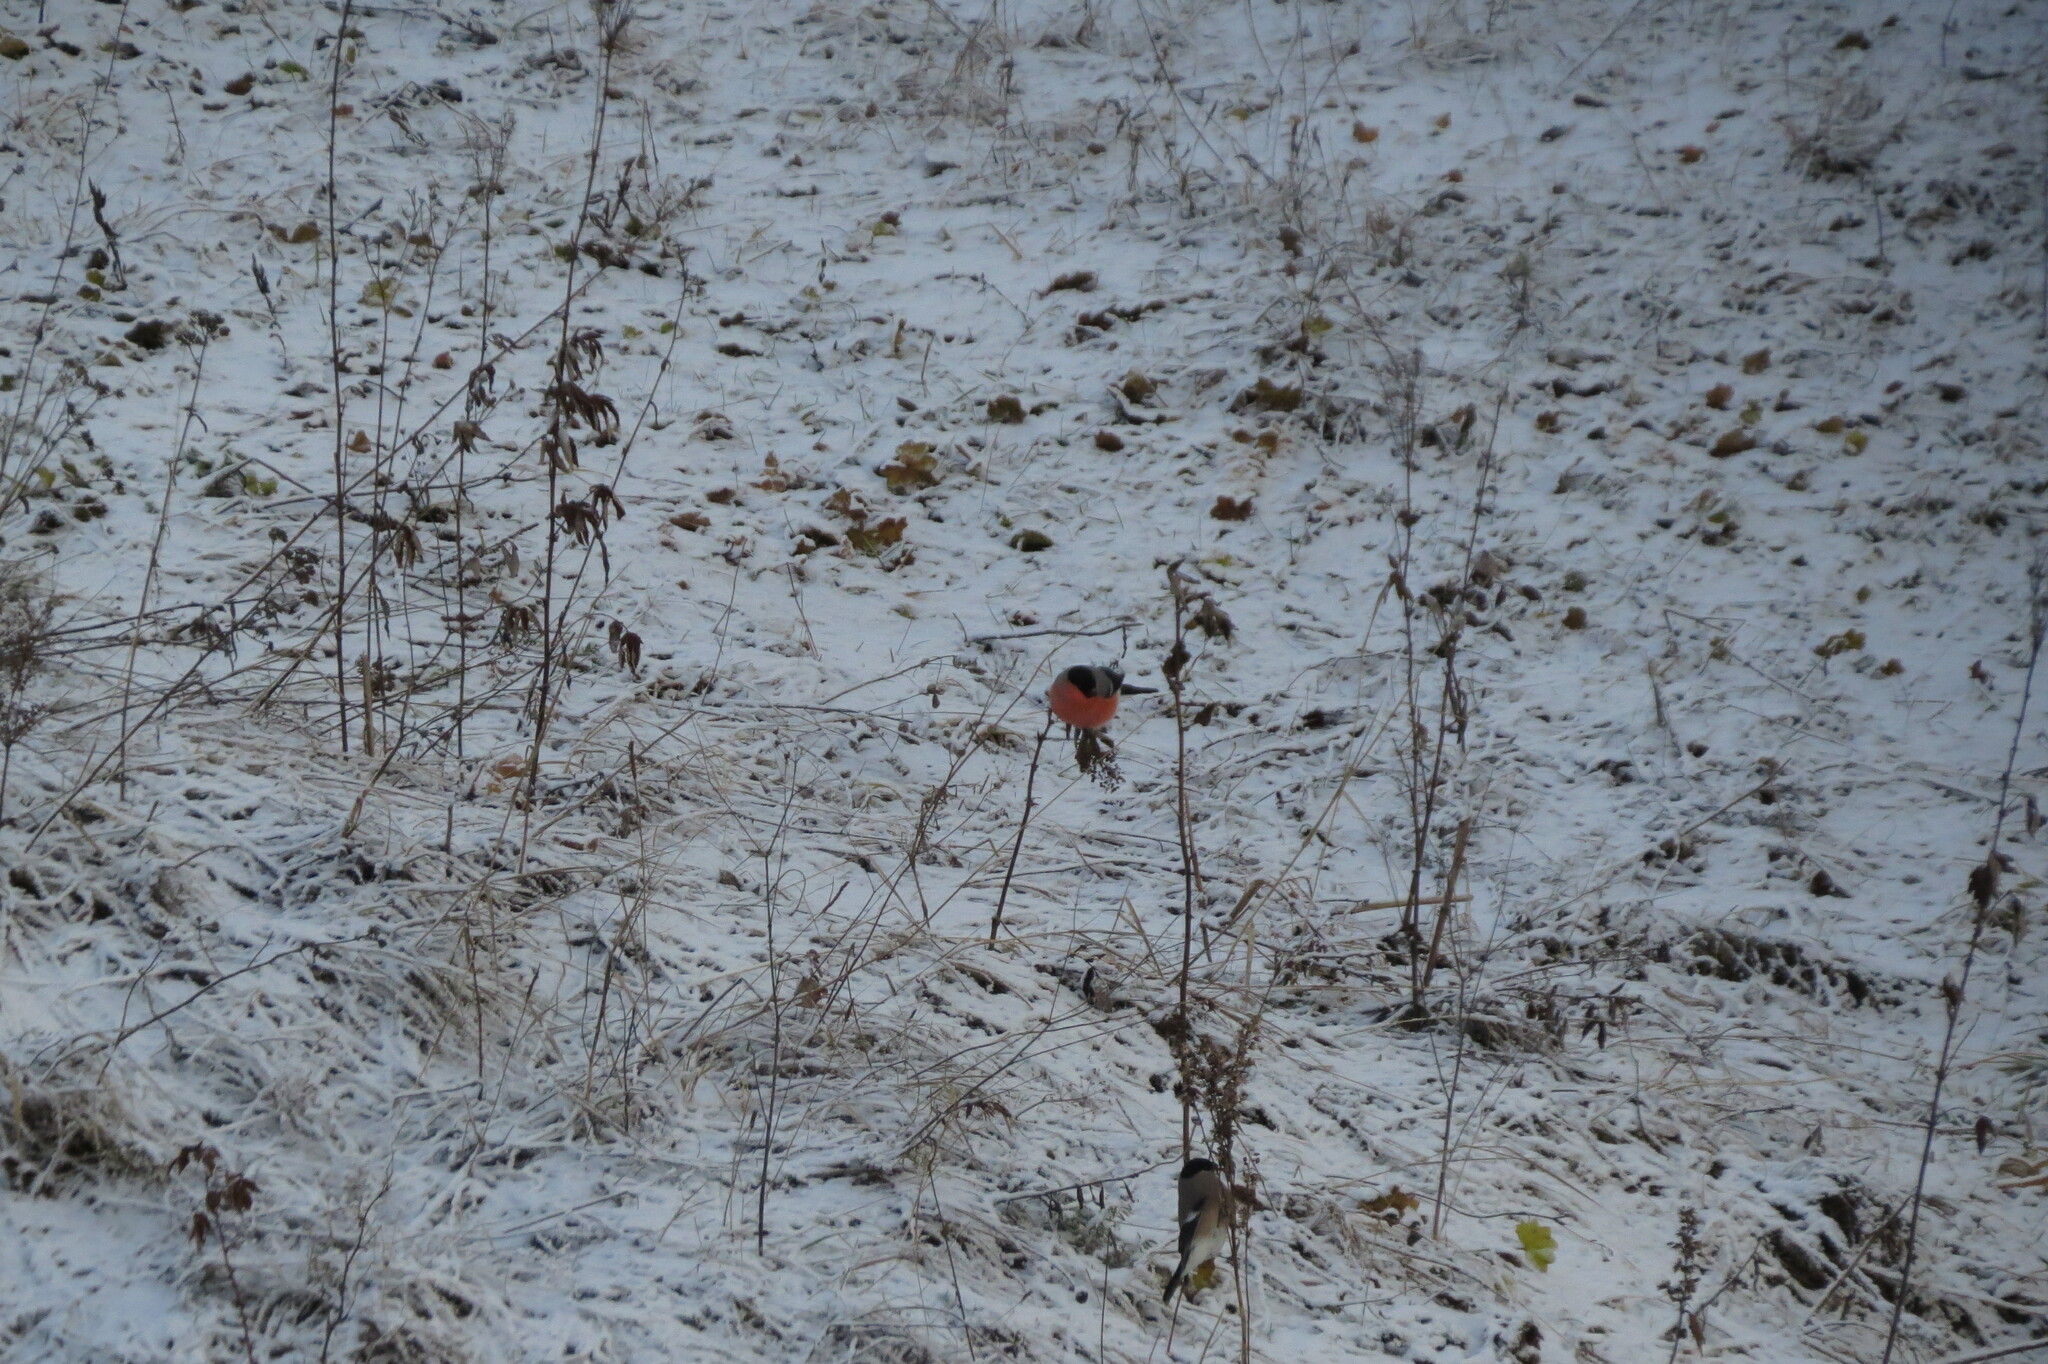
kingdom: Animalia
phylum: Chordata
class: Aves
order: Passeriformes
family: Fringillidae
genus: Pyrrhula
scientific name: Pyrrhula pyrrhula
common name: Eurasian bullfinch
